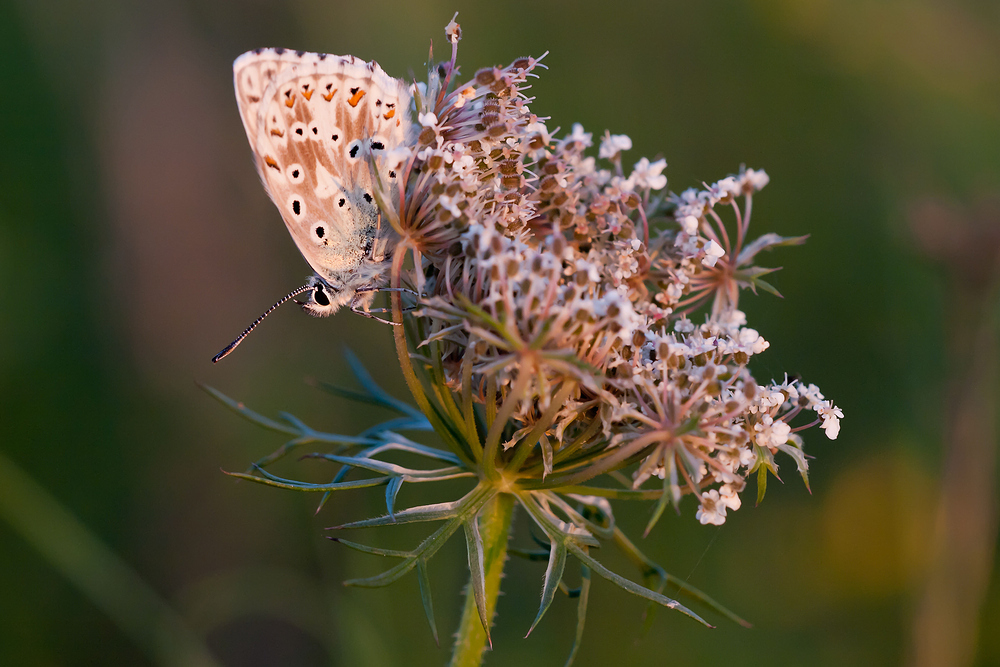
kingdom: Animalia
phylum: Arthropoda
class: Insecta
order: Lepidoptera
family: Lycaenidae
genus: Lysandra
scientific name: Lysandra coridon
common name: Chalkhill blue
